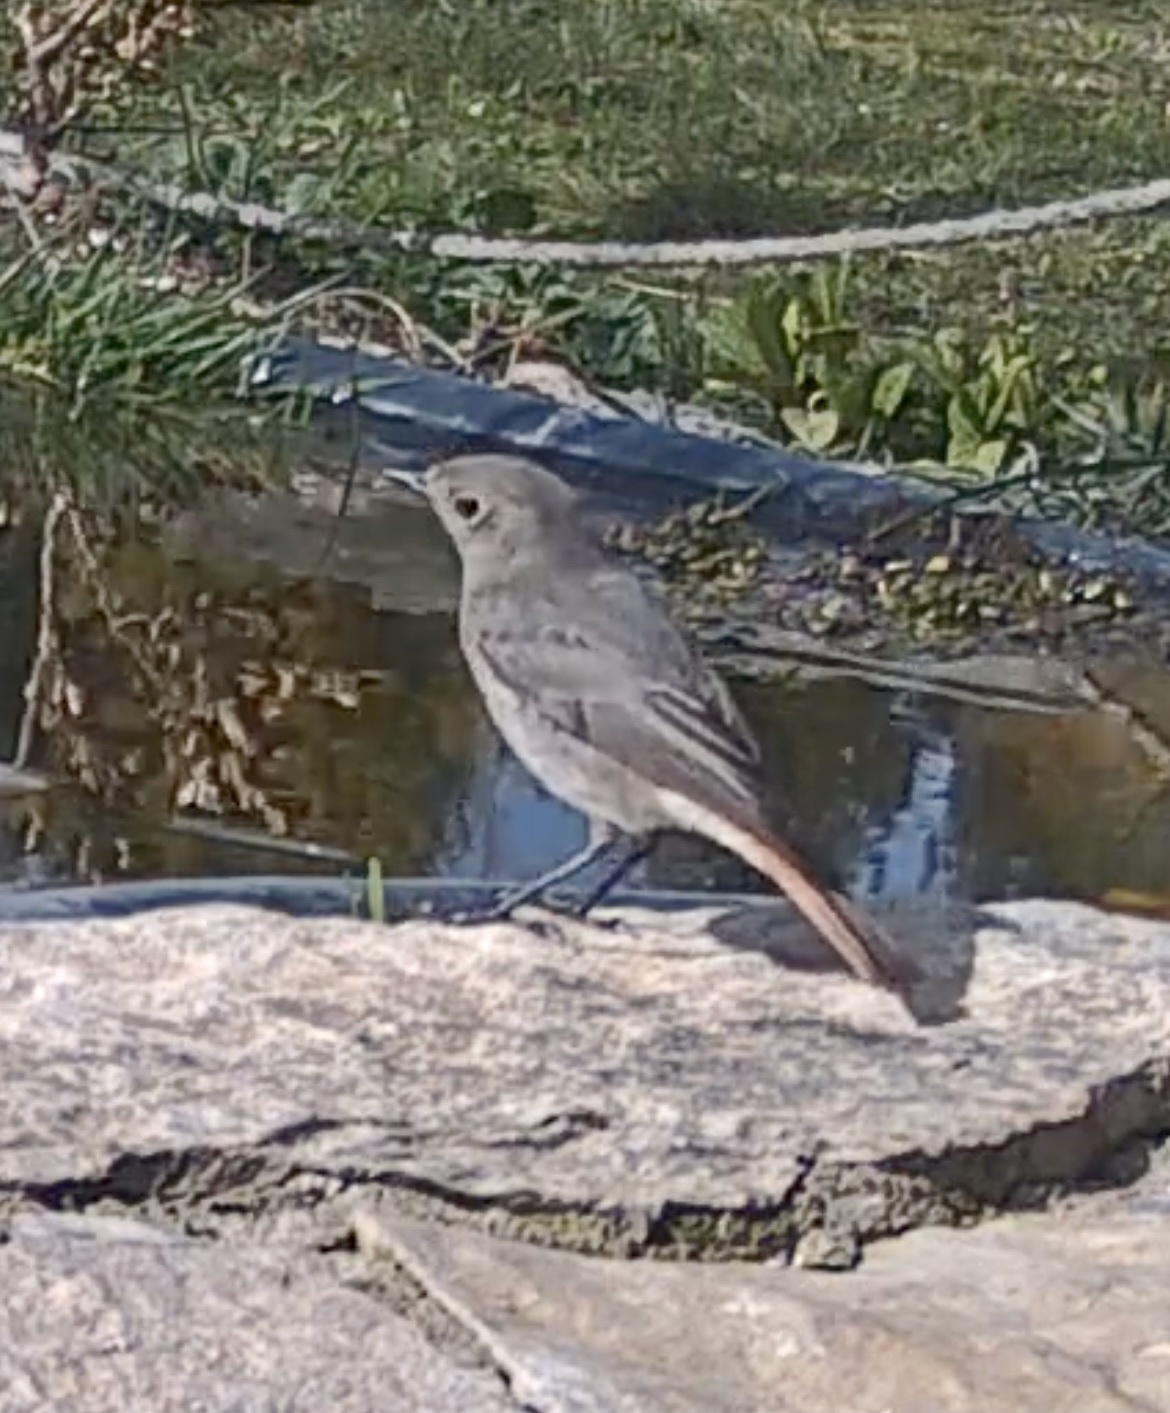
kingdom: Animalia
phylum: Chordata
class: Aves
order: Passeriformes
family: Muscicapidae
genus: Phoenicurus
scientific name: Phoenicurus ochruros
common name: Black redstart
